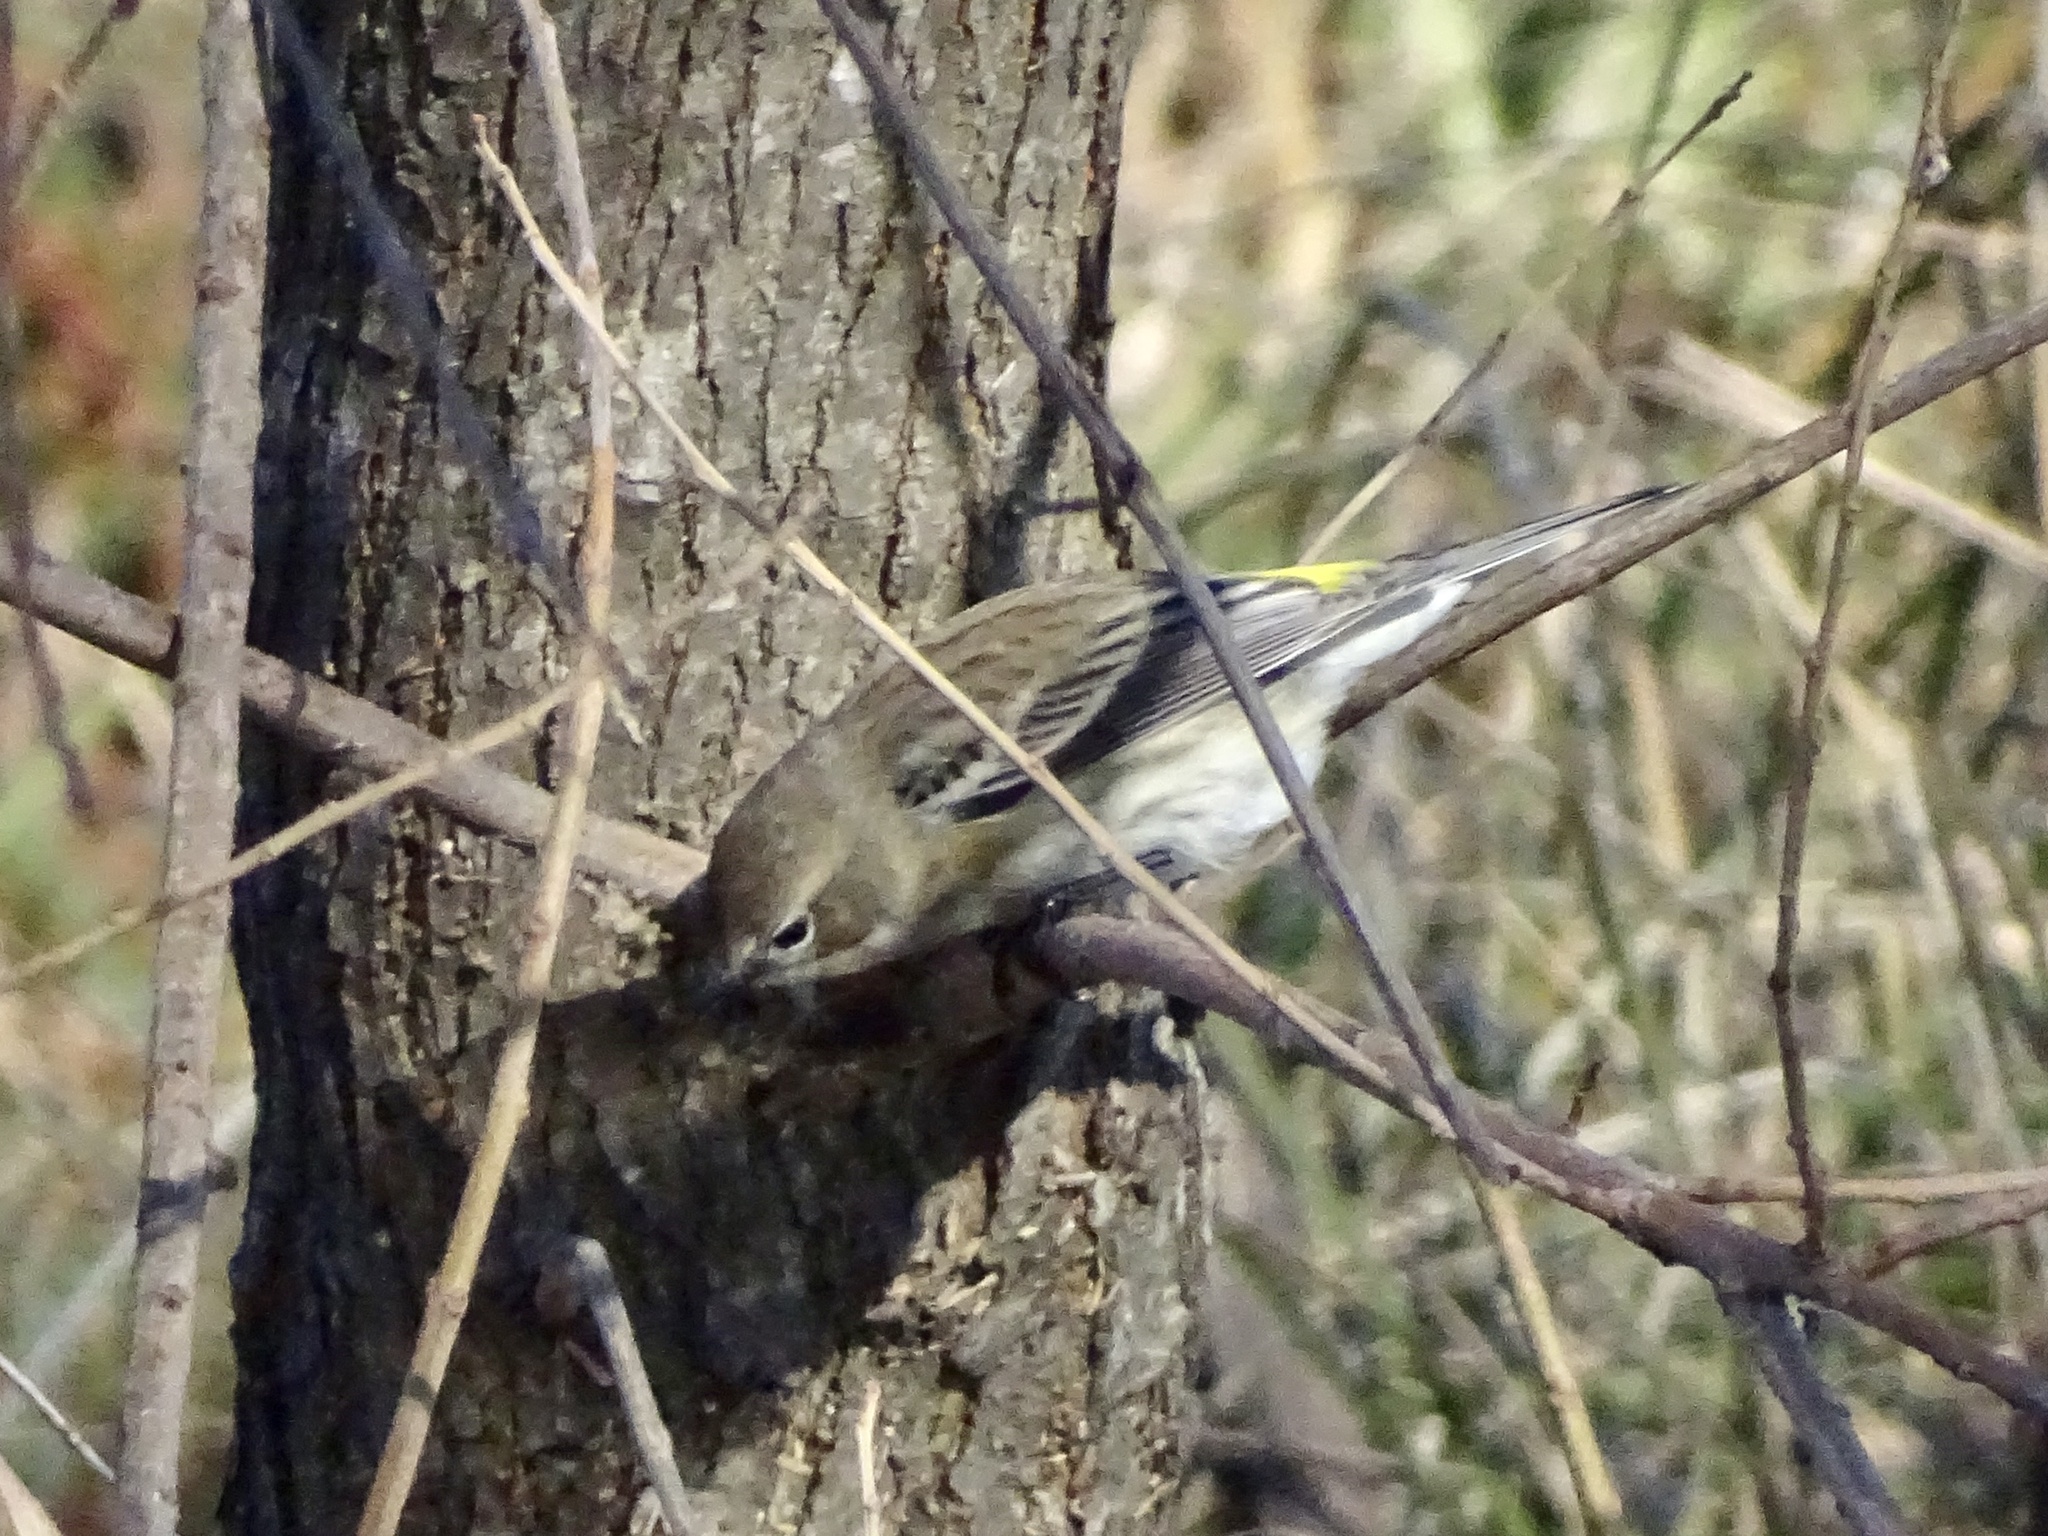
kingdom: Animalia
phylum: Chordata
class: Aves
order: Passeriformes
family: Parulidae
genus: Setophaga
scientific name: Setophaga coronata
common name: Myrtle warbler
